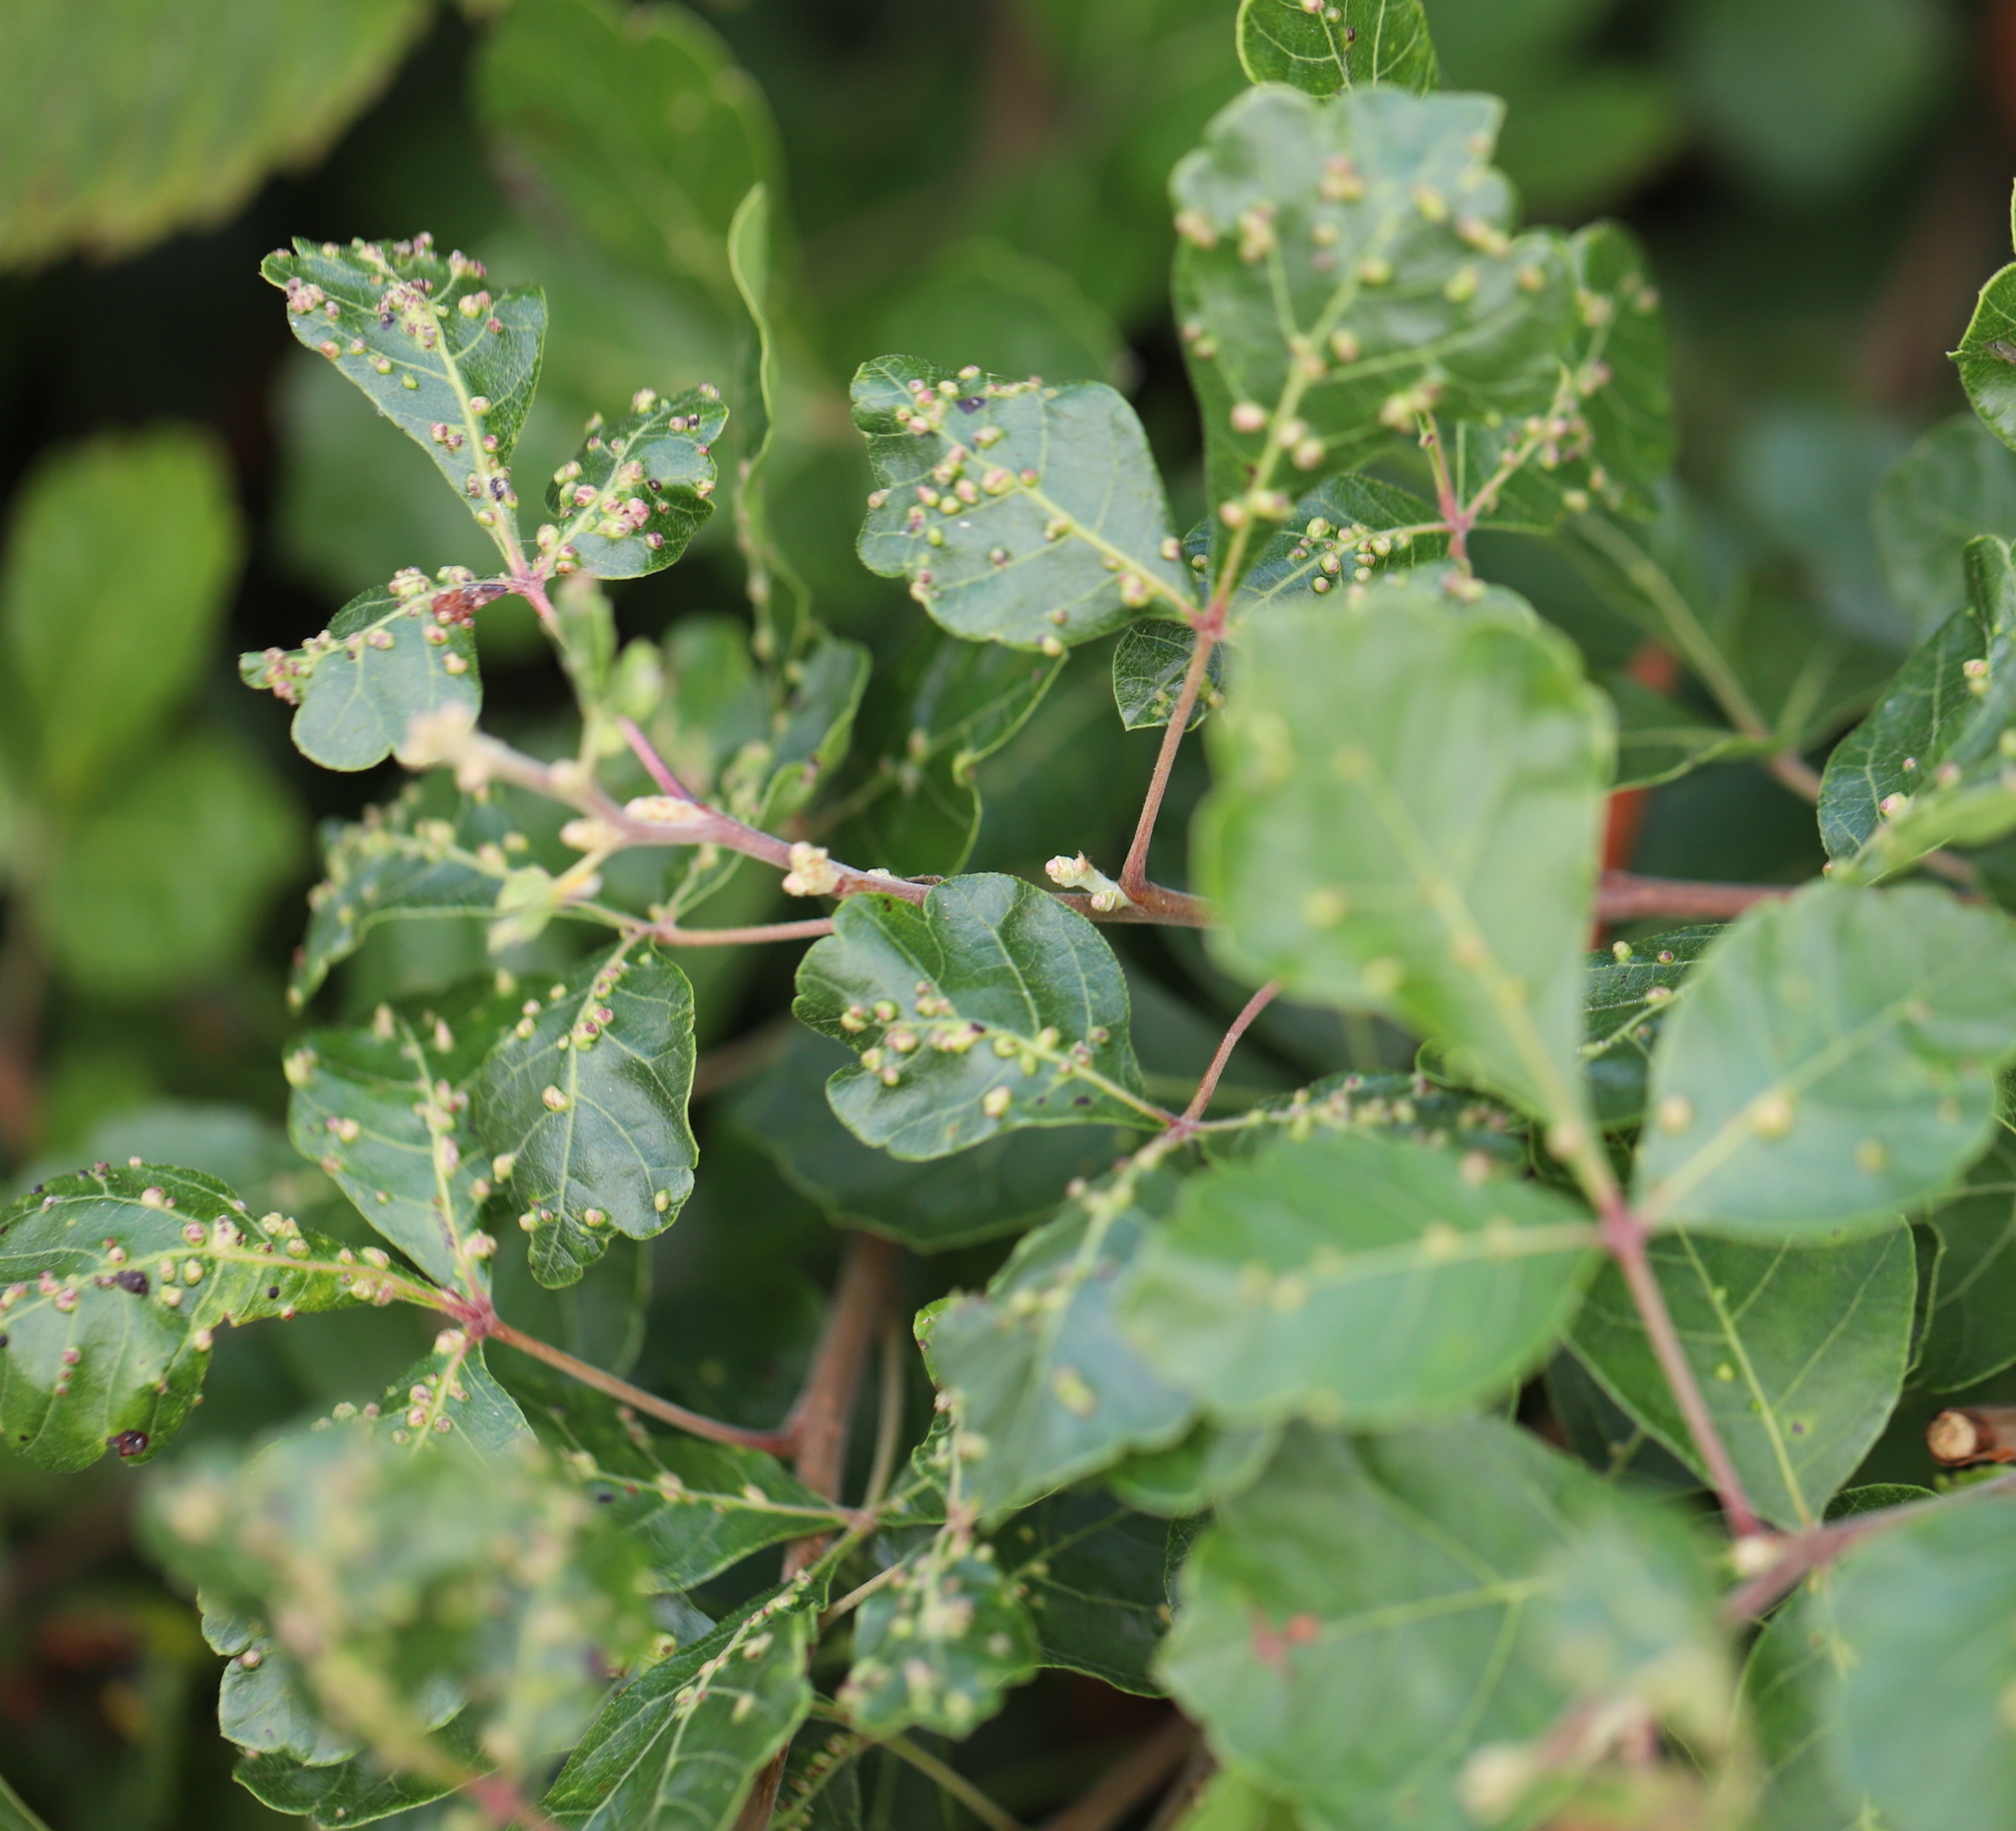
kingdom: Plantae
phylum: Tracheophyta
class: Magnoliopsida
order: Sapindales
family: Anacardiaceae
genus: Rhus
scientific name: Rhus aromatica
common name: Aromatic sumac
